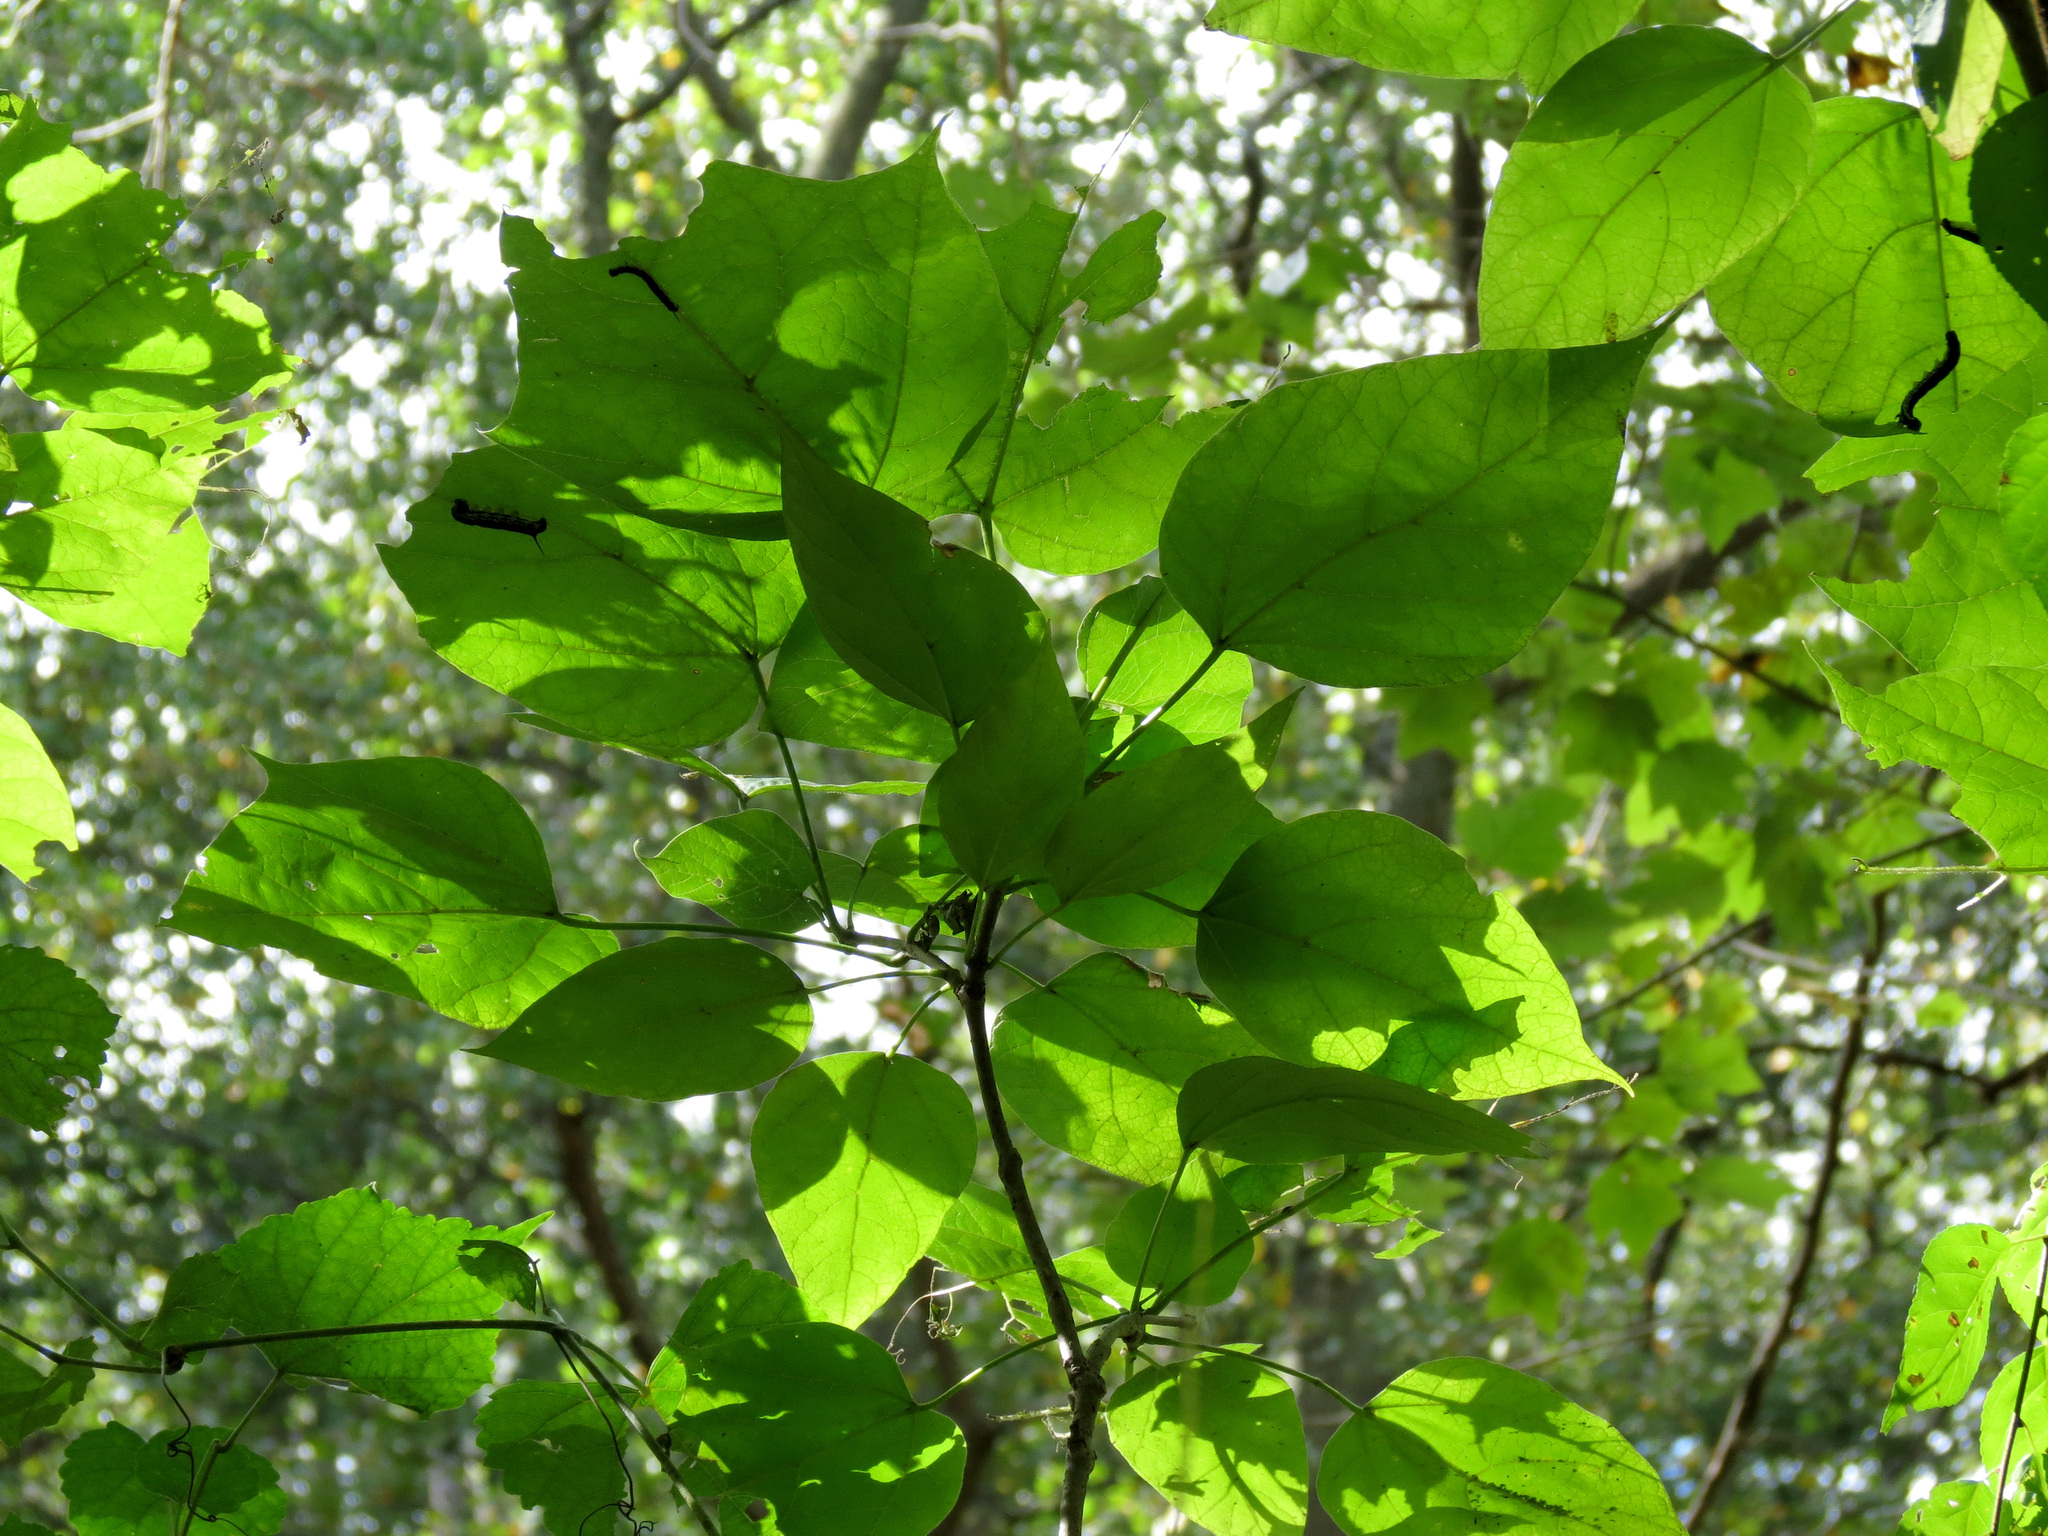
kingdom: Animalia
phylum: Arthropoda
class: Insecta
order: Lepidoptera
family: Sphingidae
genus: Ceratomia
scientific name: Ceratomia catalpae
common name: Catalpa hornworm
